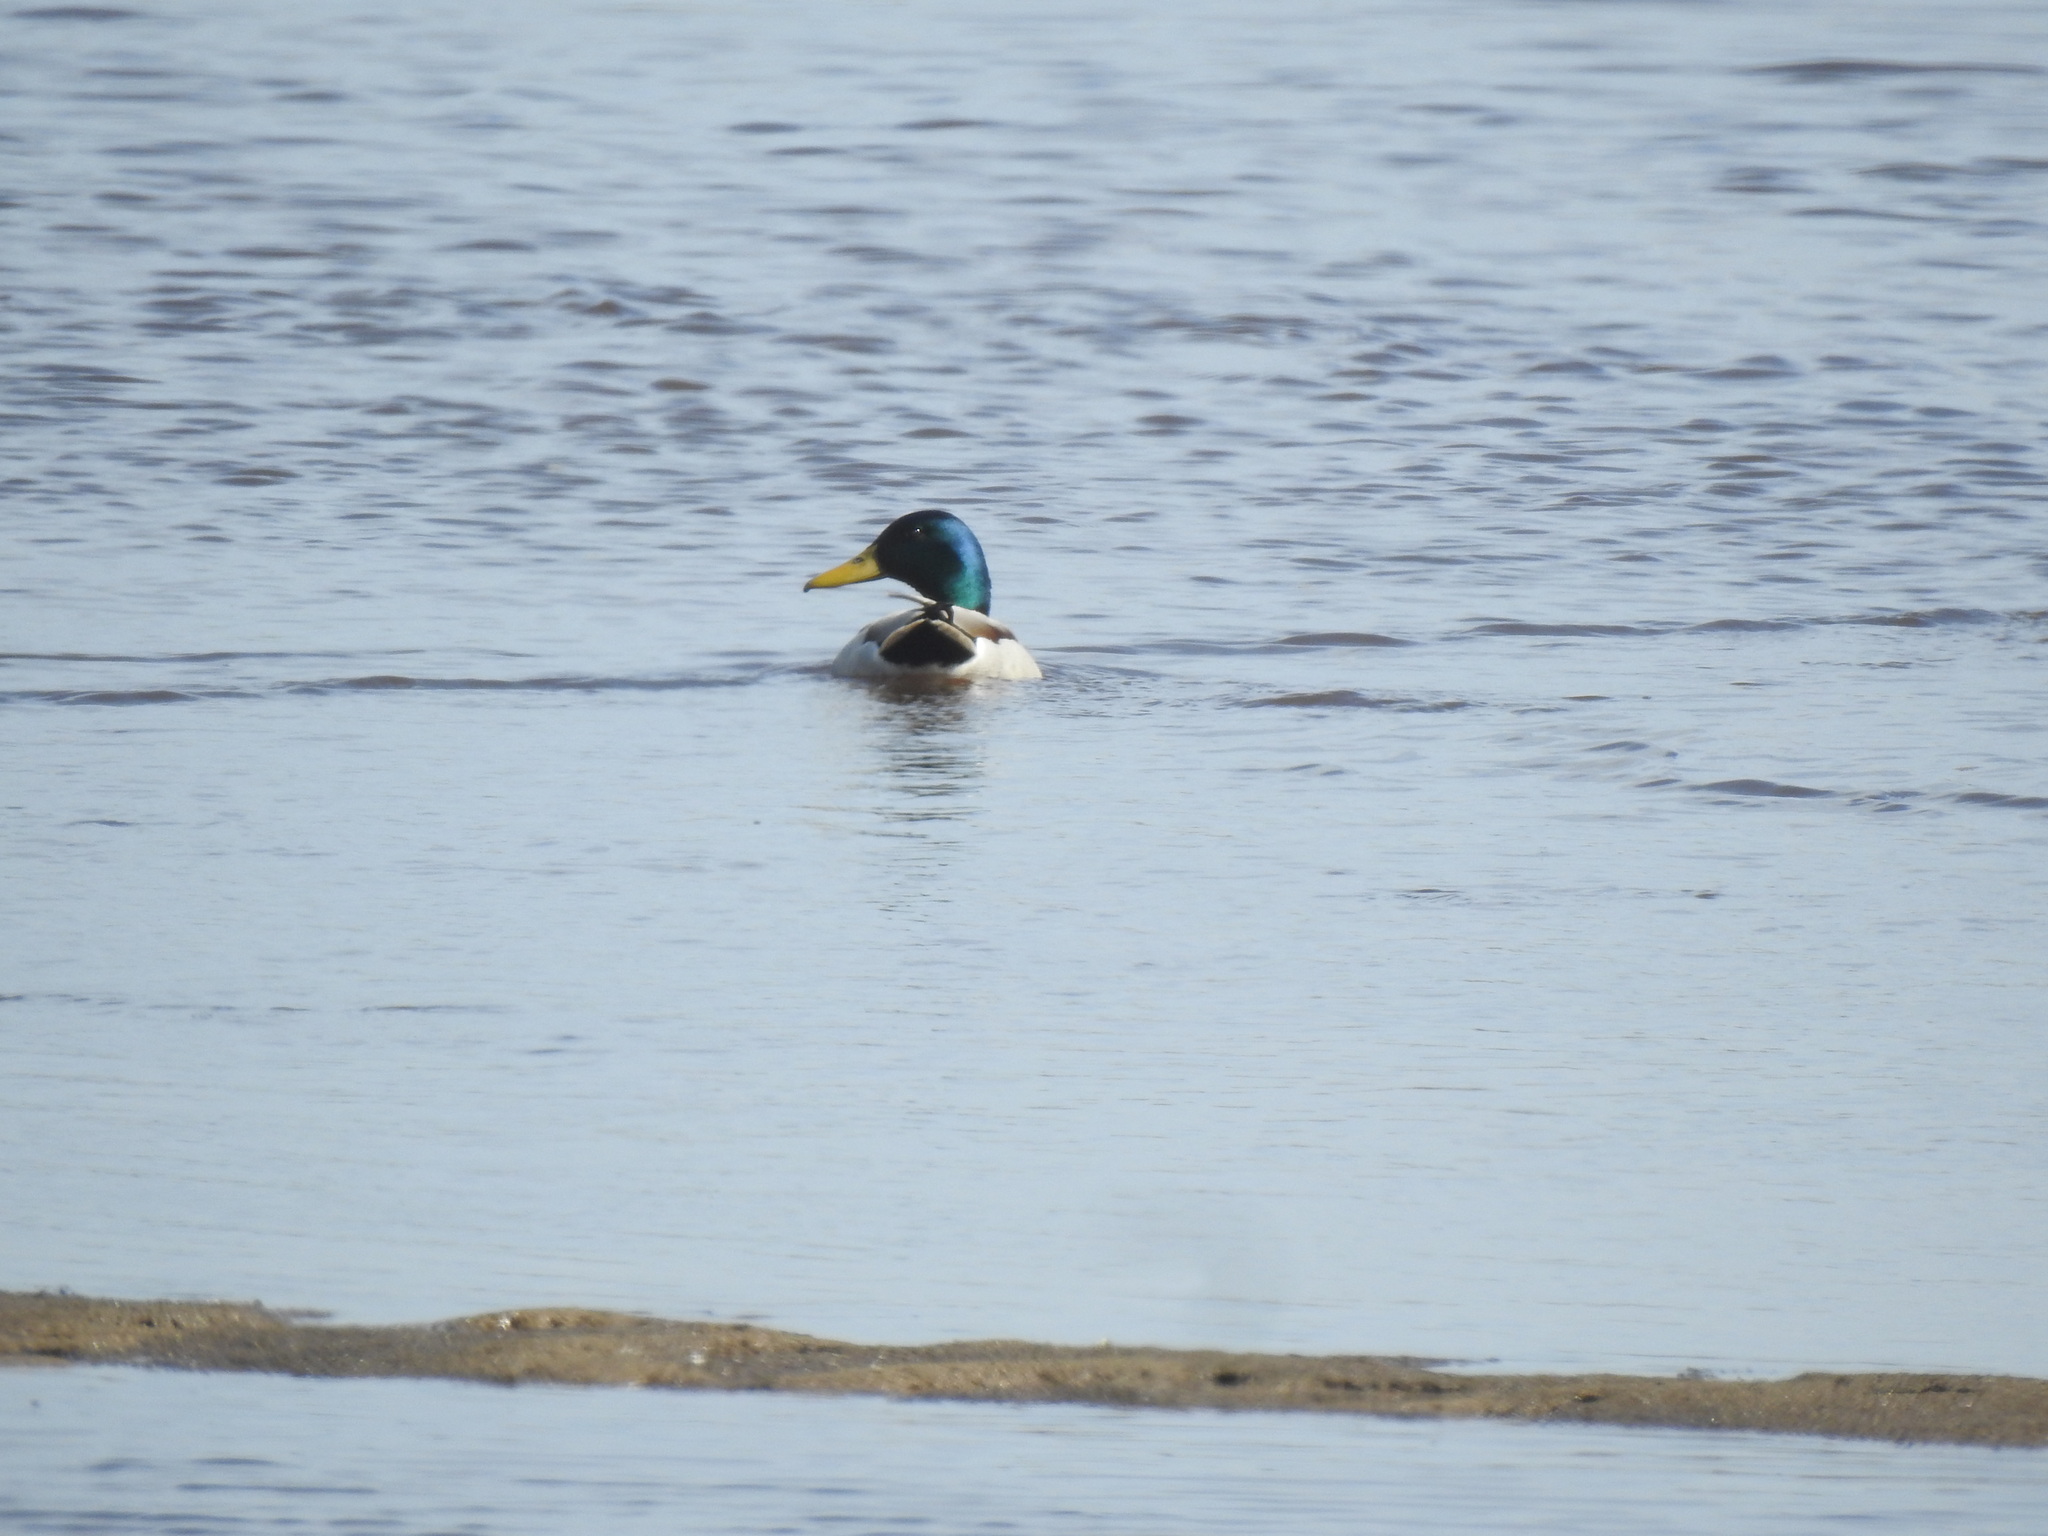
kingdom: Animalia
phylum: Chordata
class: Aves
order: Anseriformes
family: Anatidae
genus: Anas
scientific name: Anas platyrhynchos
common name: Mallard
